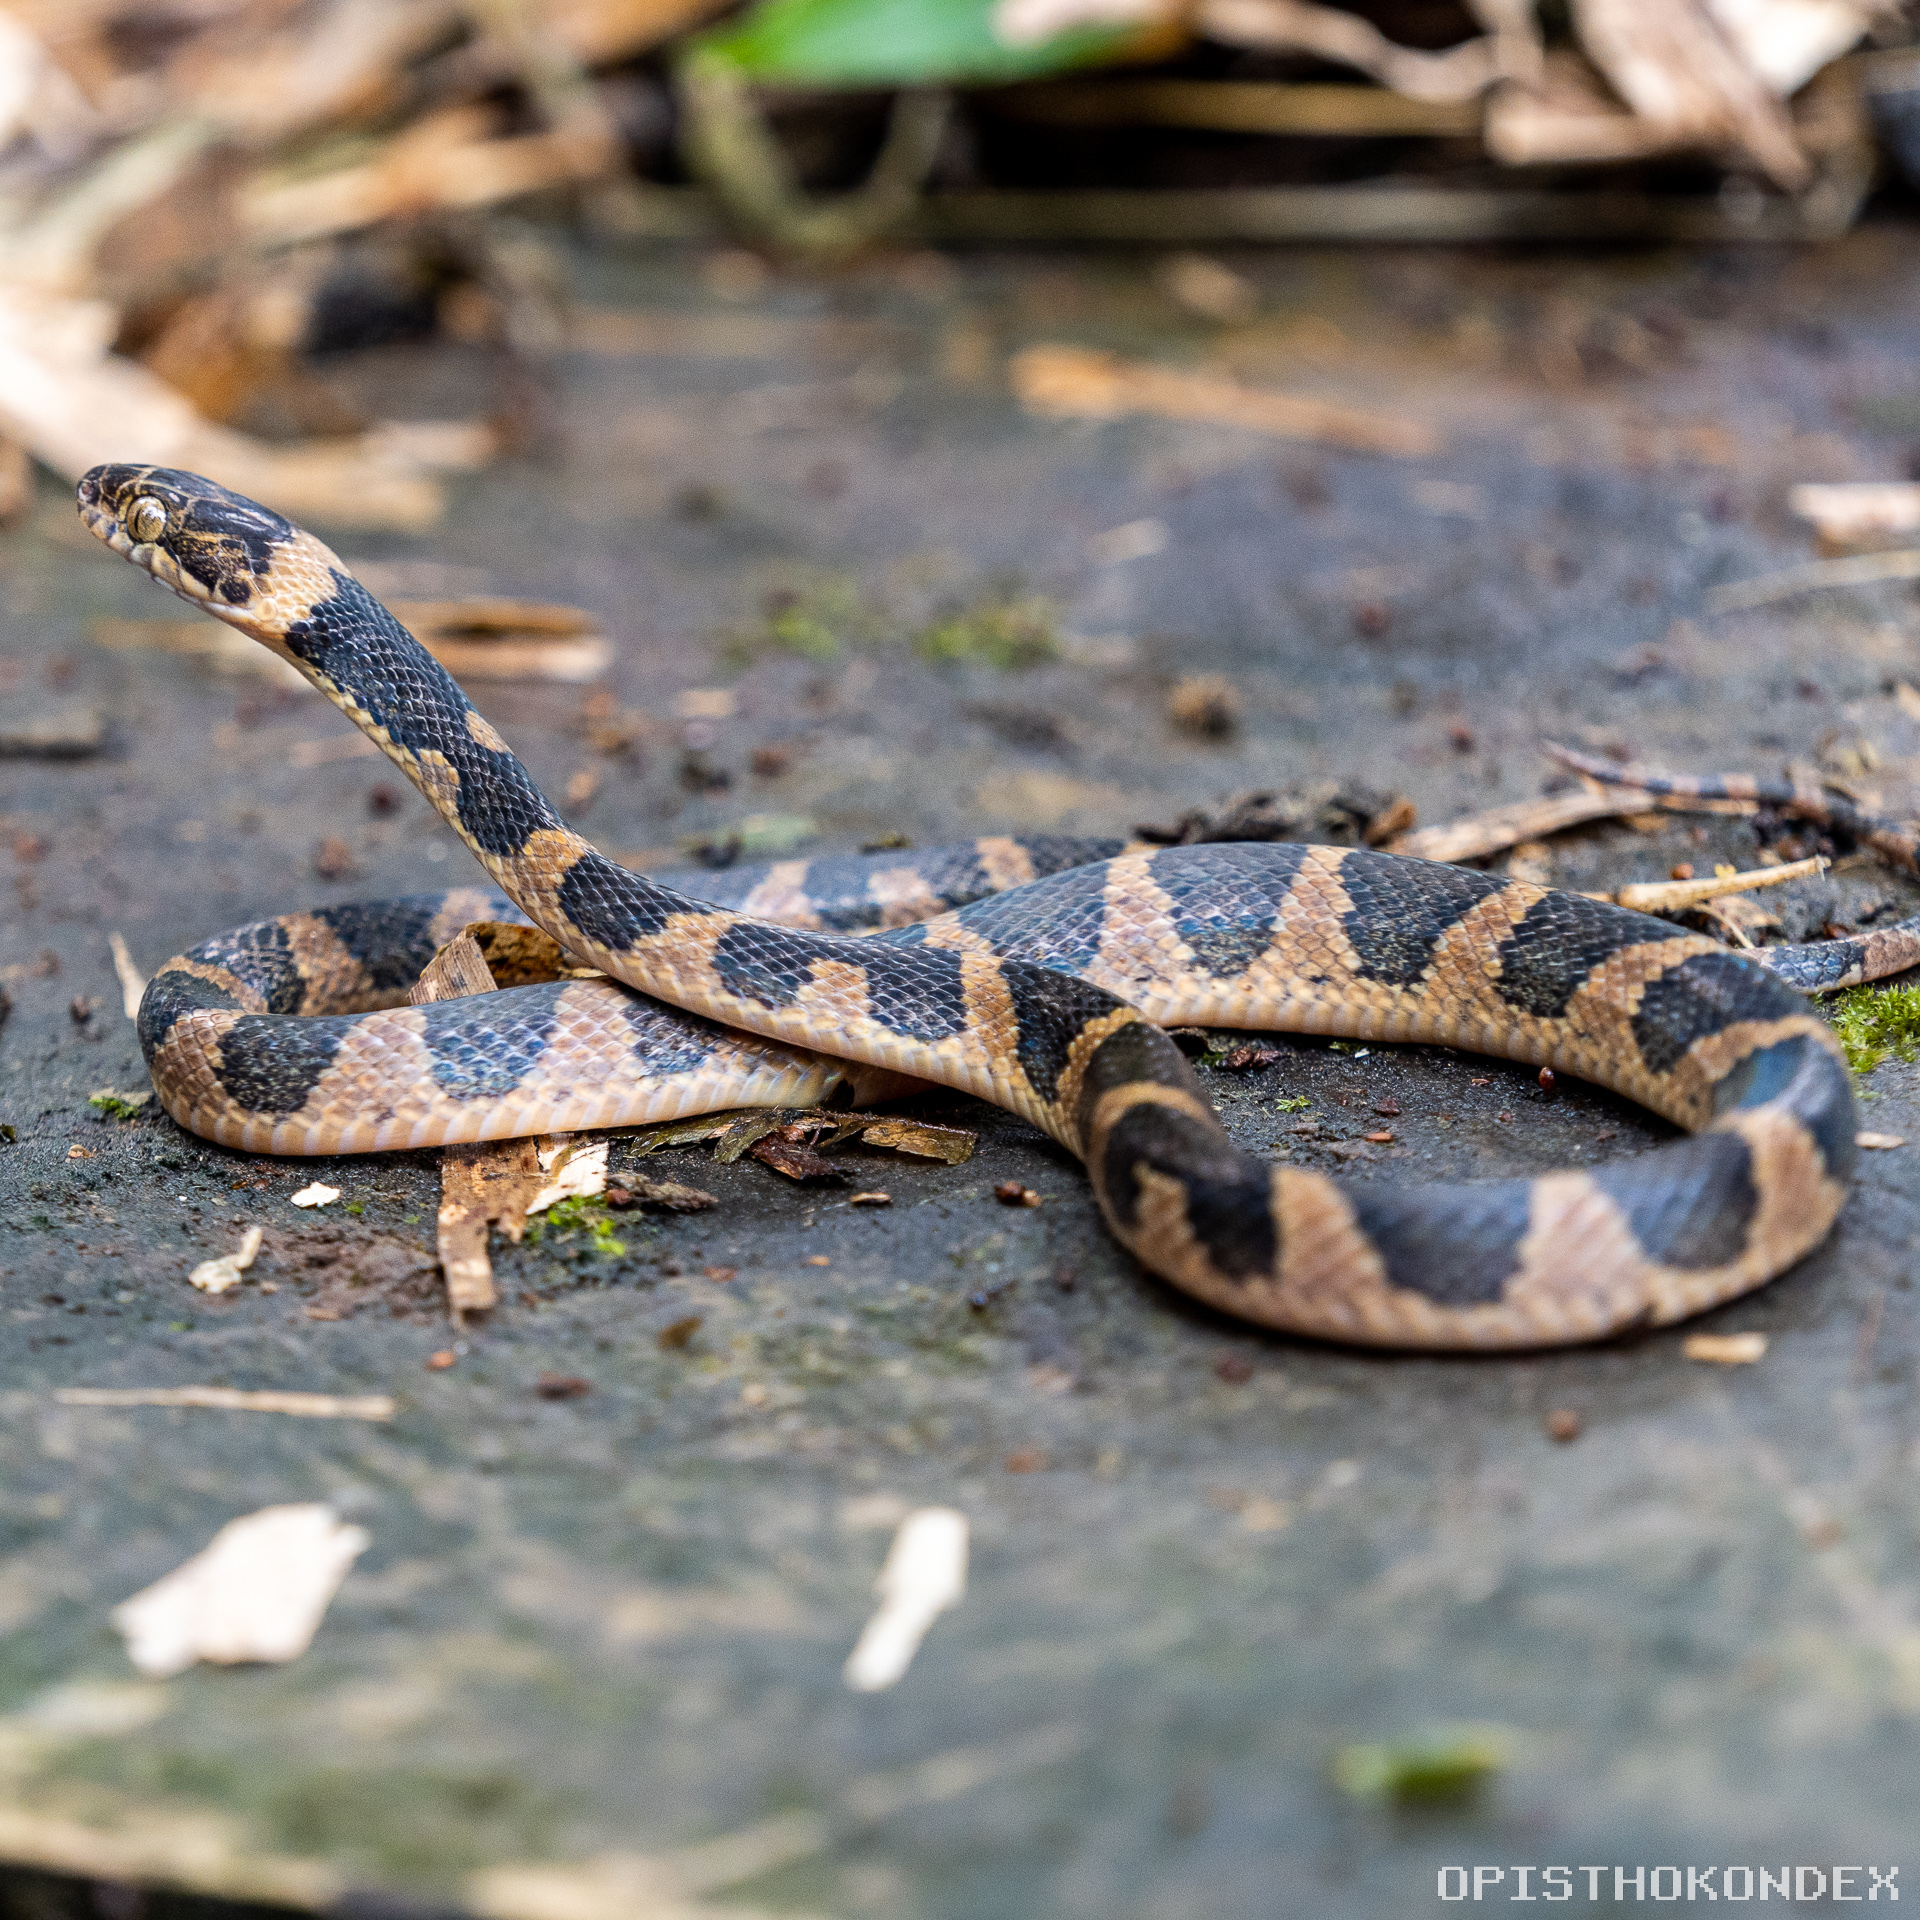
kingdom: Animalia
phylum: Chordata
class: Squamata
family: Colubridae
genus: Leptodeira
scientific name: Leptodeira maculata
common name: Southwestern cat-eyed snake
